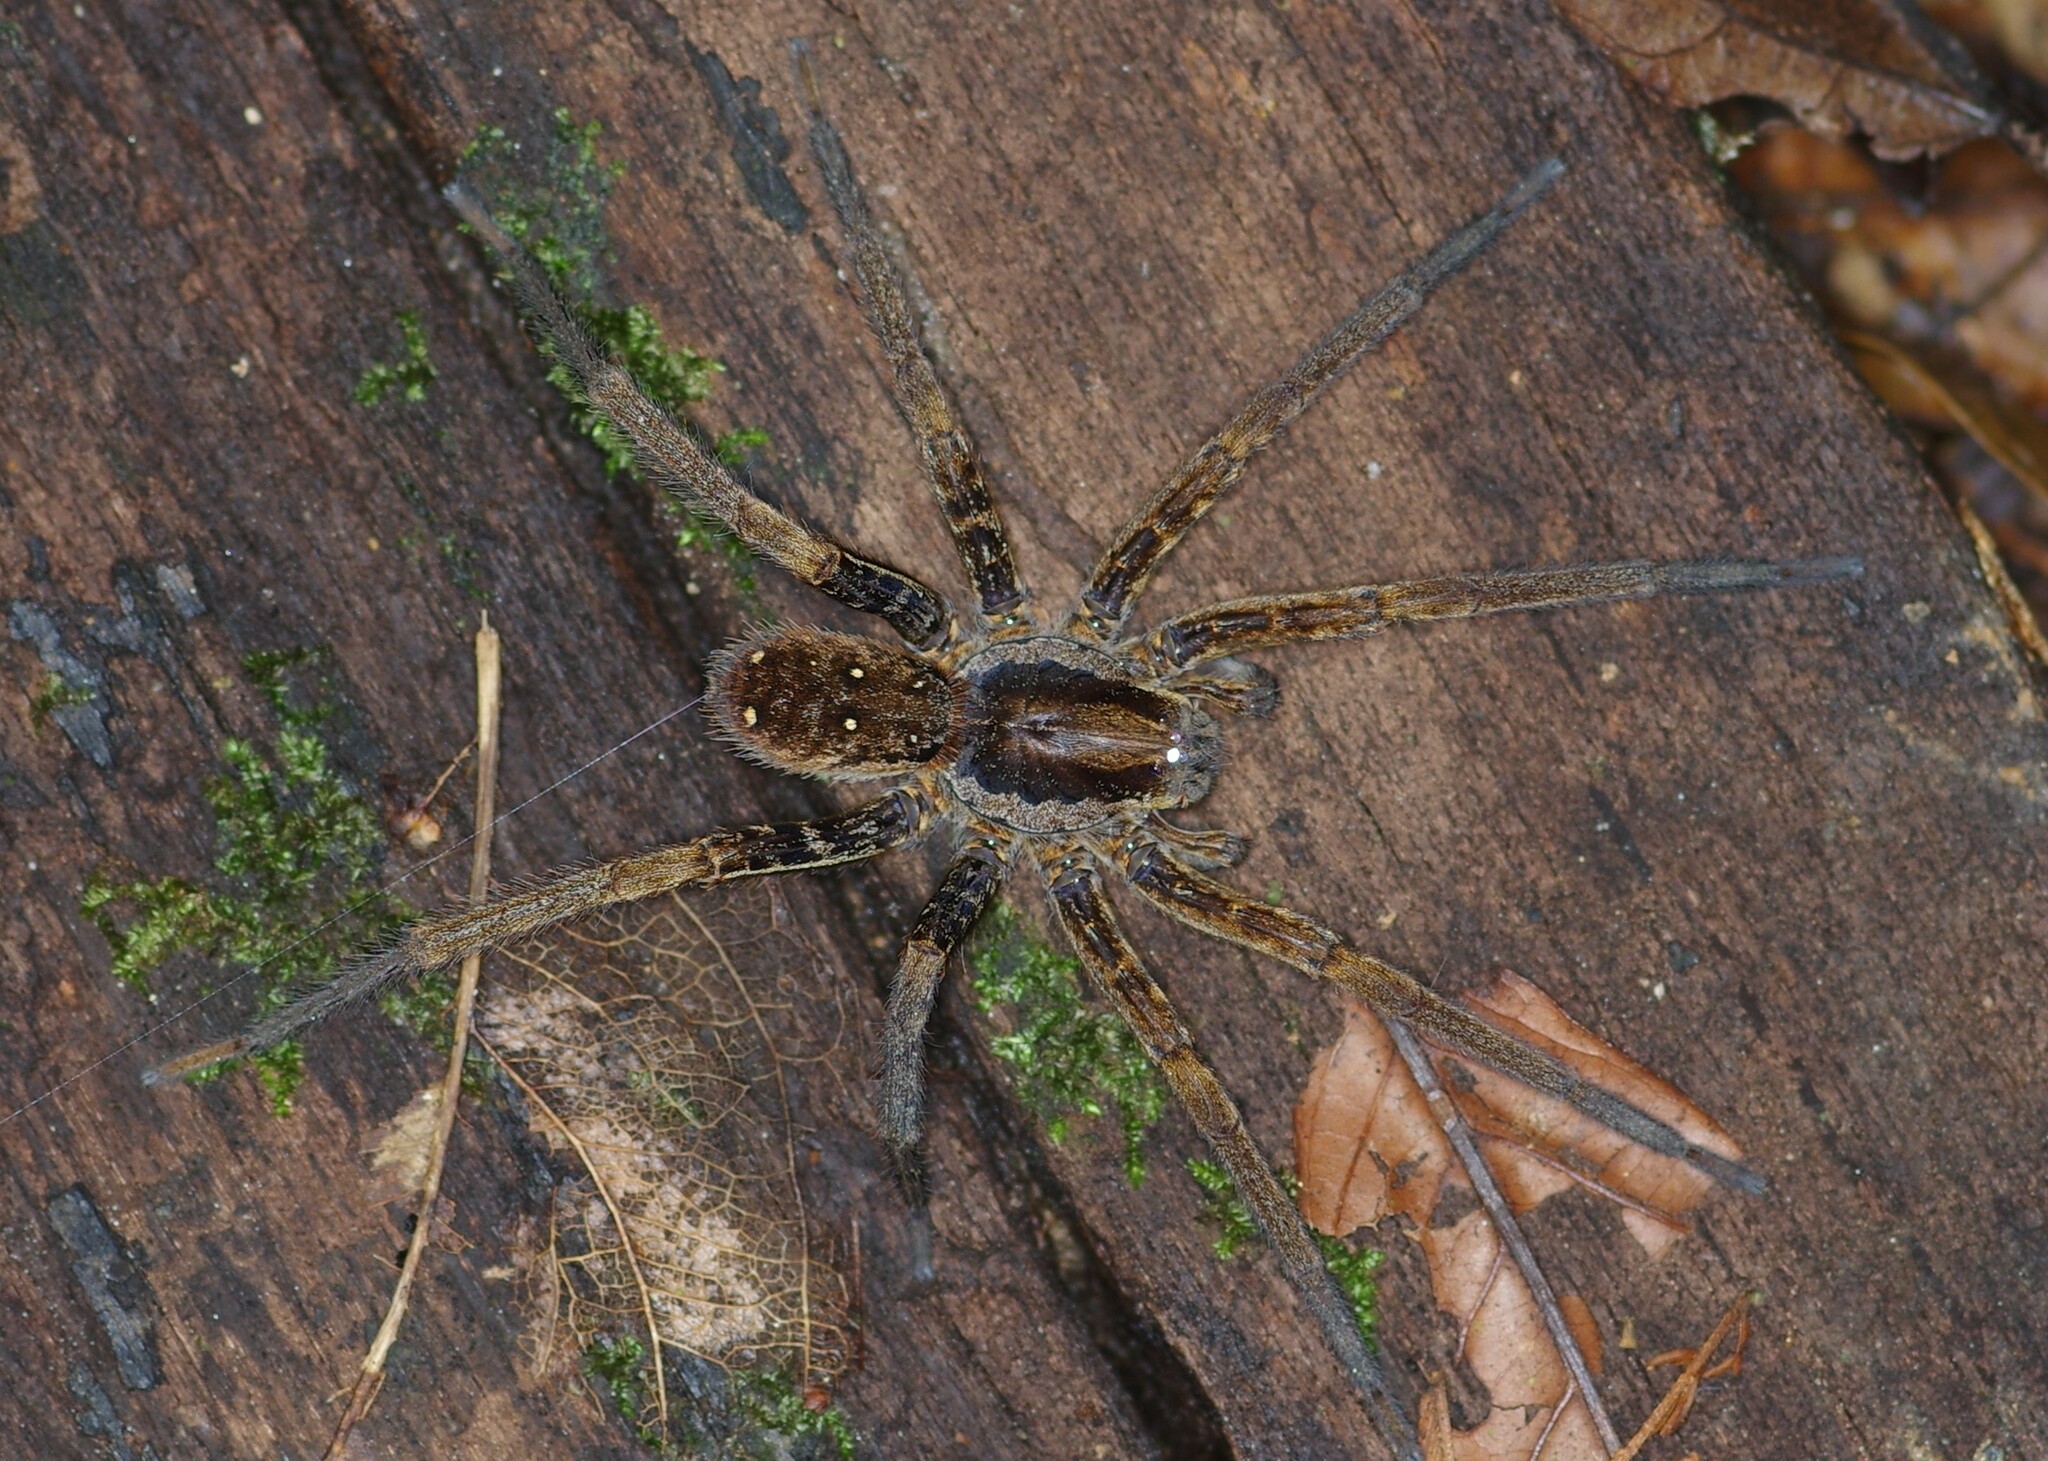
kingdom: Animalia
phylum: Arthropoda
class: Arachnida
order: Araneae
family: Ctenidae
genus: Ancylometes
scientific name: Ancylometes
